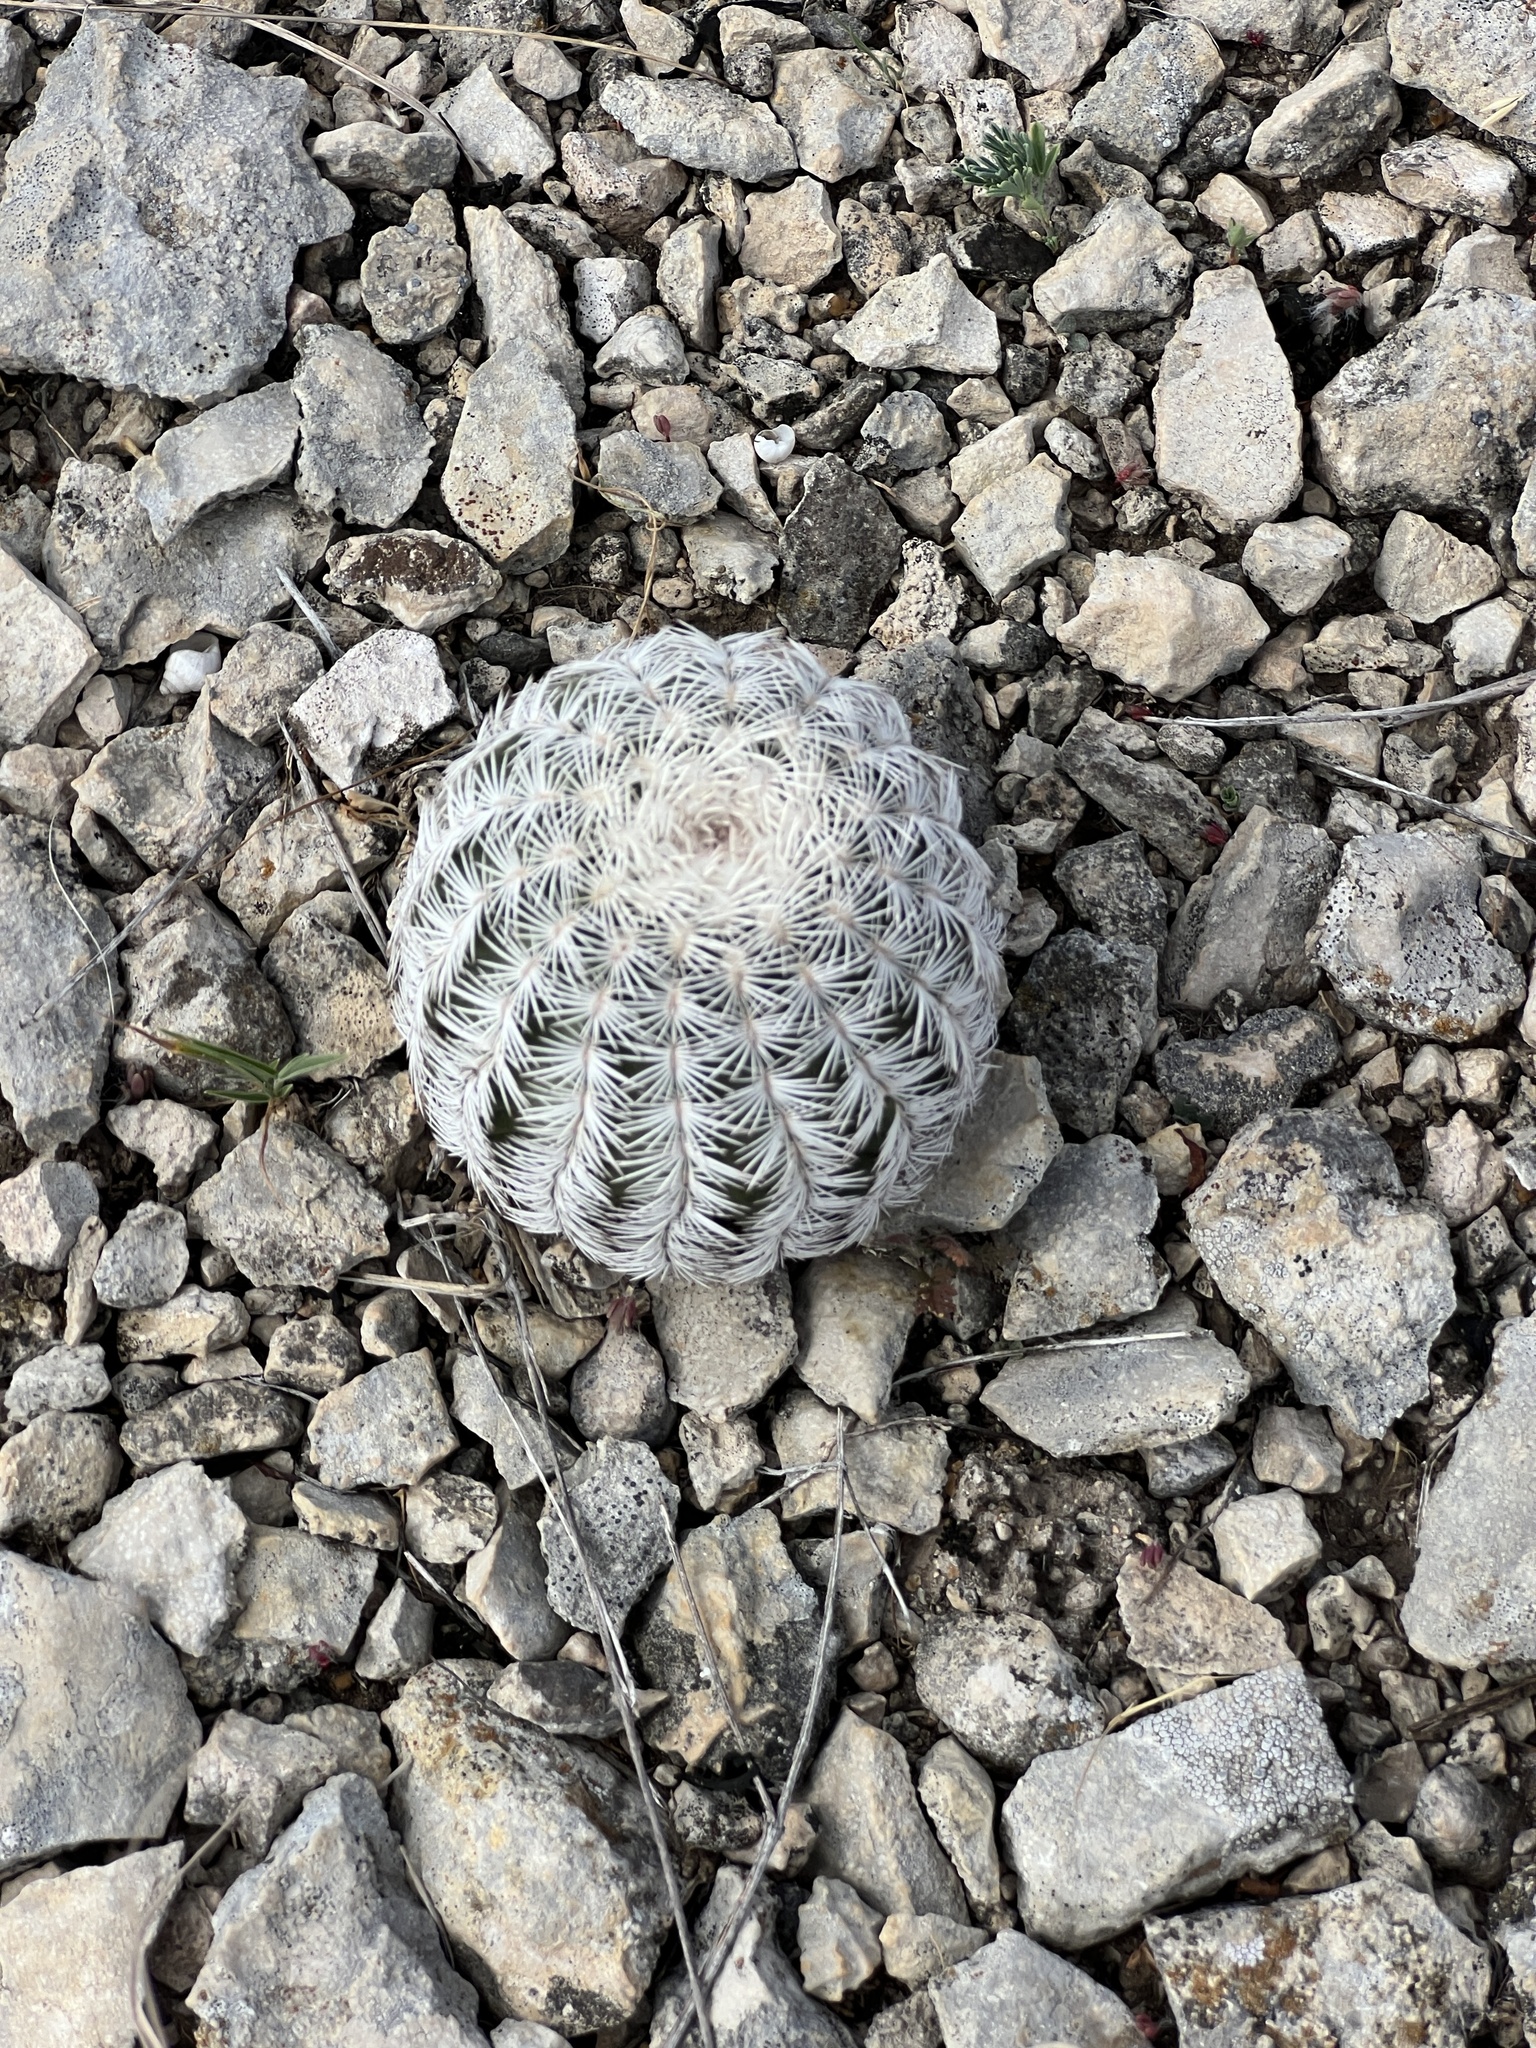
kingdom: Plantae
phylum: Tracheophyta
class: Magnoliopsida
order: Caryophyllales
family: Cactaceae
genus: Echinocereus
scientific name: Echinocereus reichenbachii
